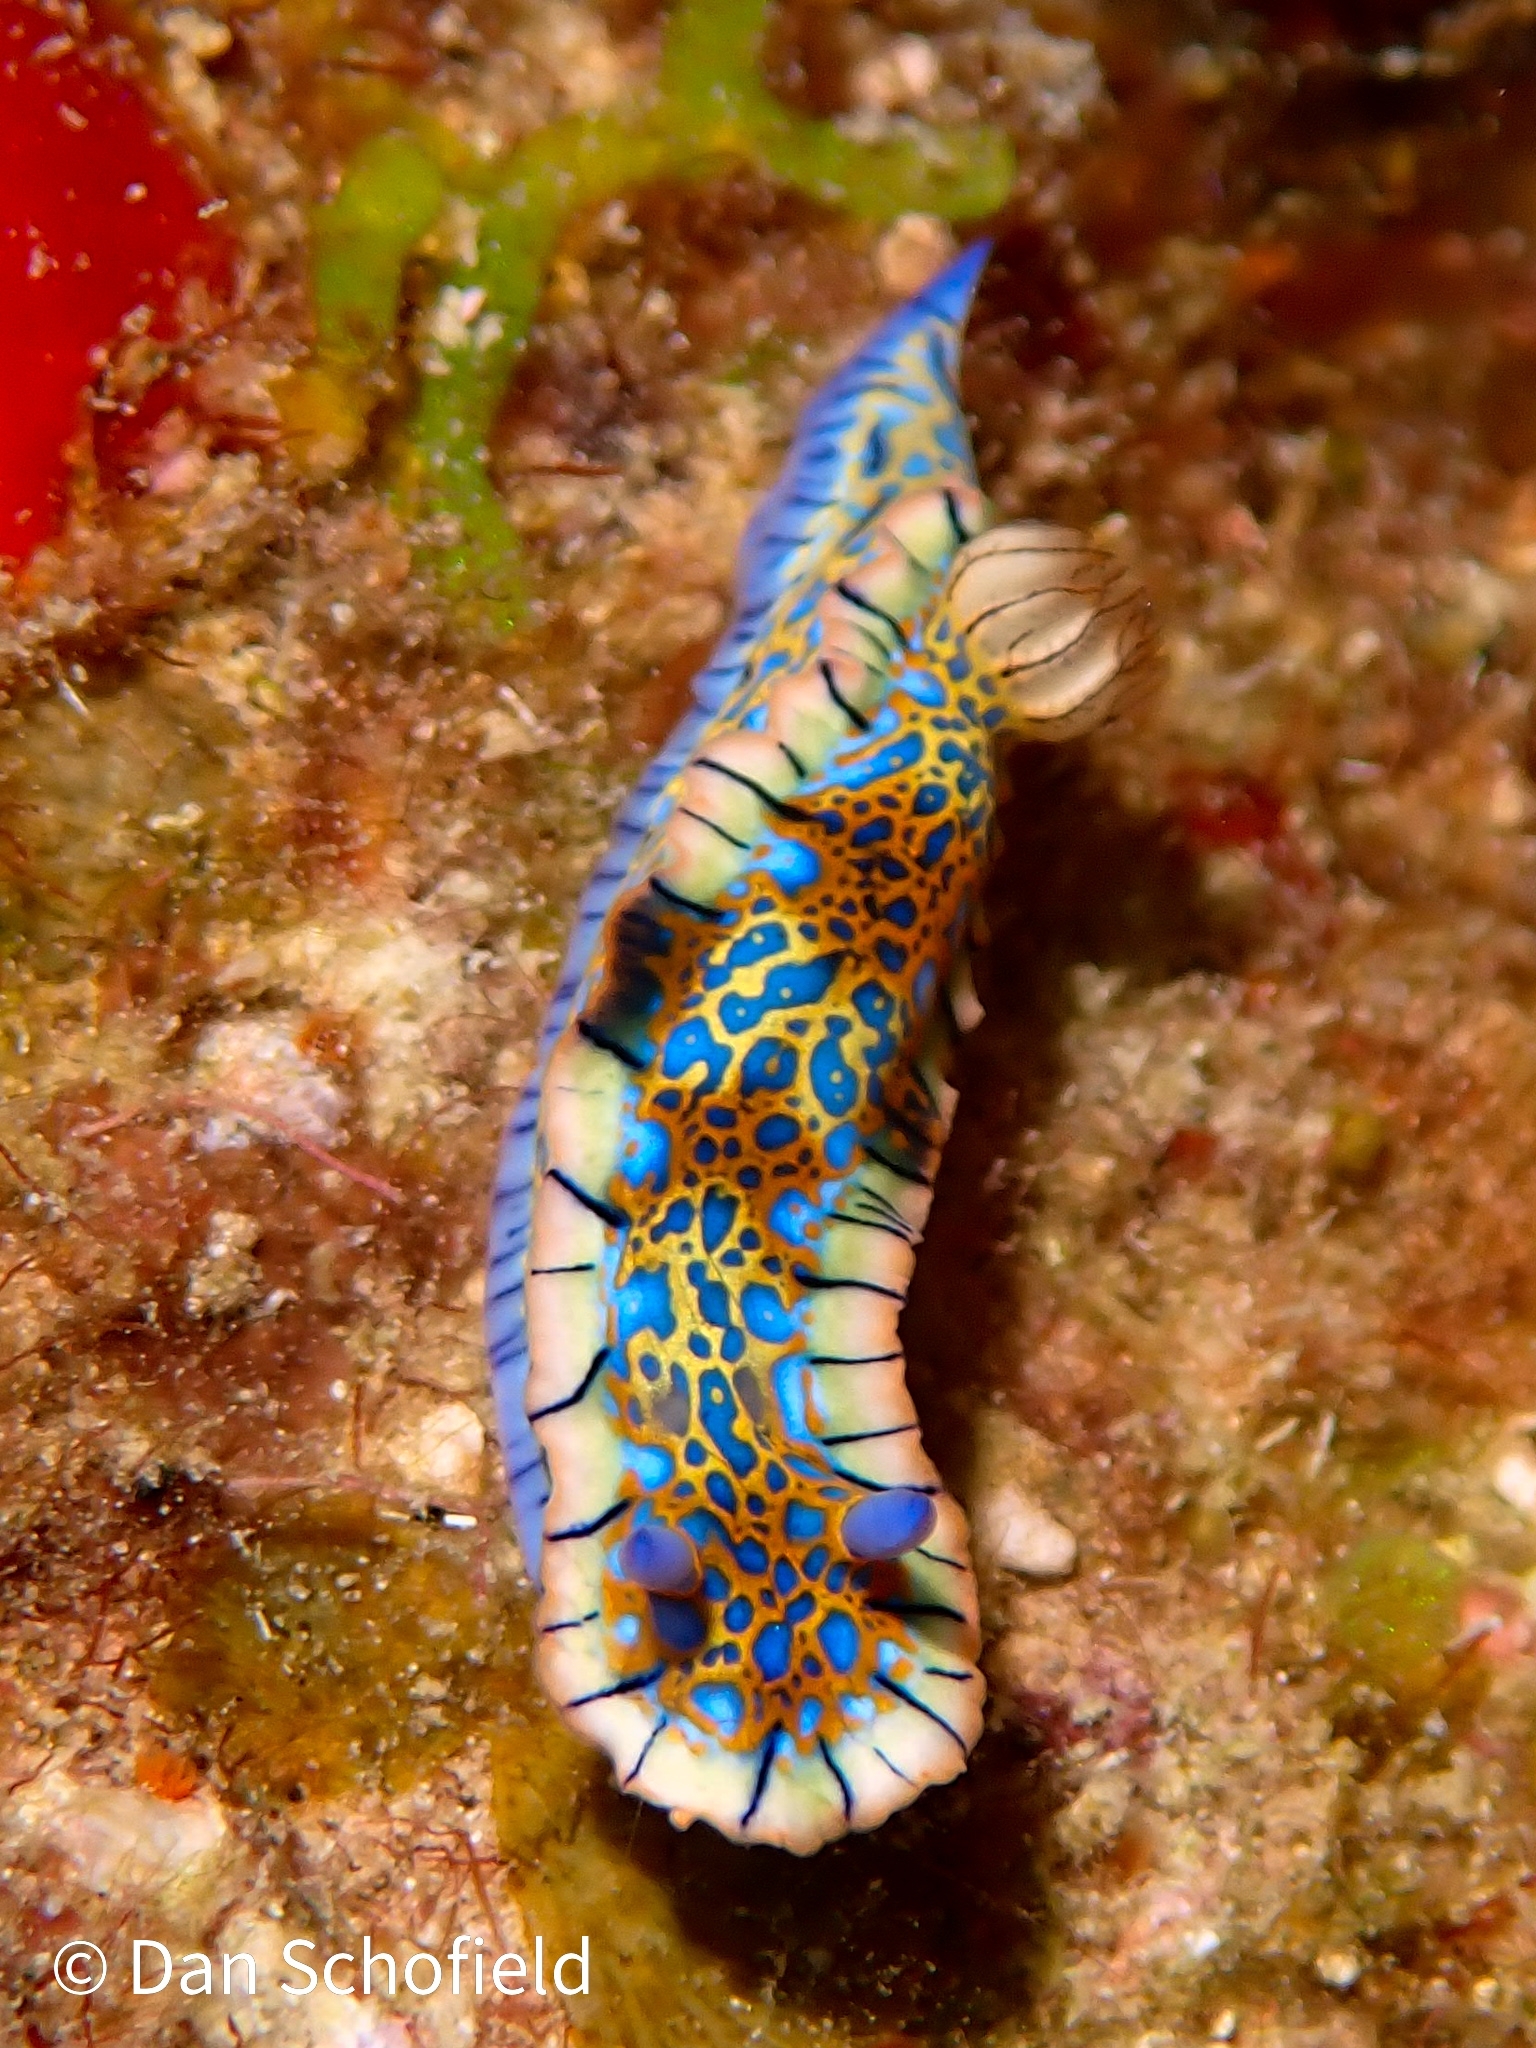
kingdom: Animalia
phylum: Mollusca
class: Gastropoda
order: Nudibranchia
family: Chromodorididae
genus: Felimare
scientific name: Felimare acriba
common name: Goldcrowned sea goddess
